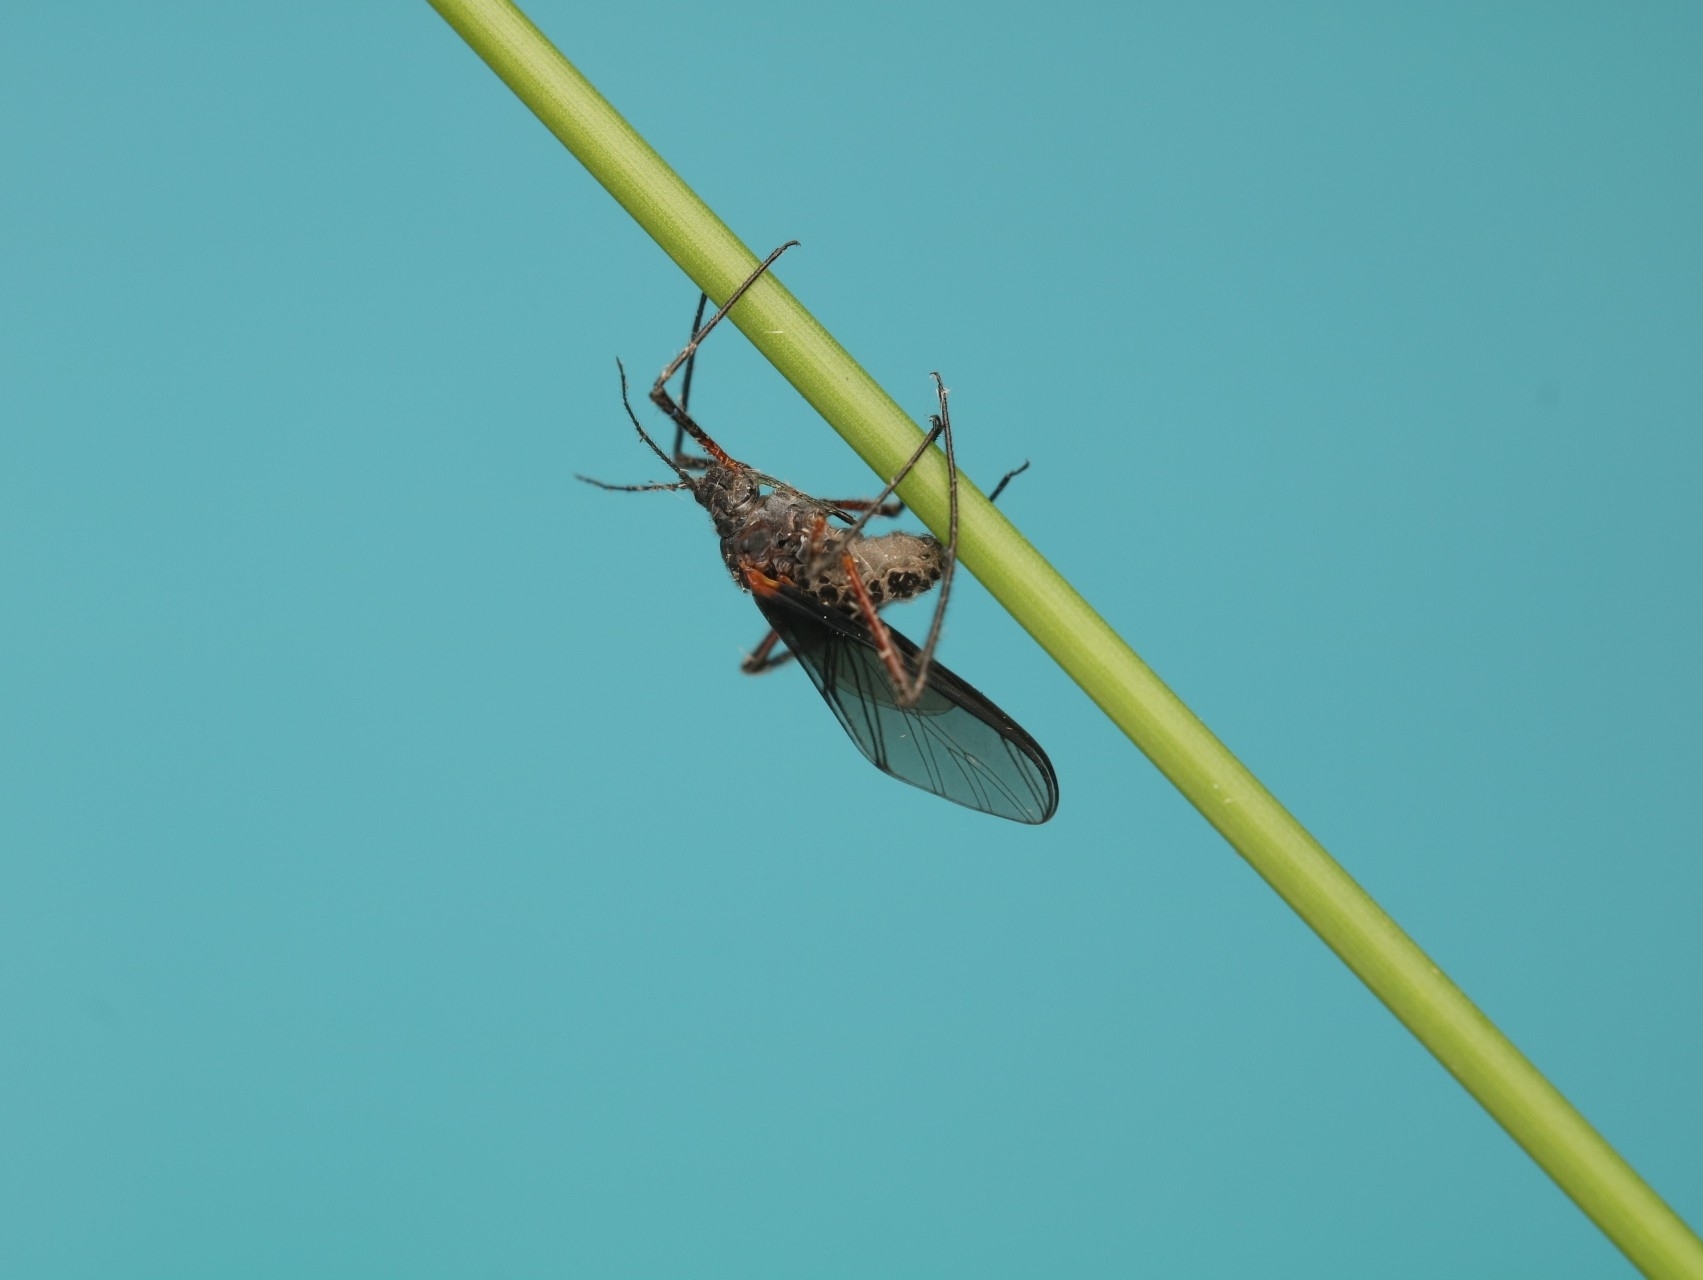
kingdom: Animalia
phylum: Arthropoda
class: Insecta
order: Hemiptera
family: Aphididae
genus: Longistigma
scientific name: Longistigma caryae
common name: Giant bark aphid
